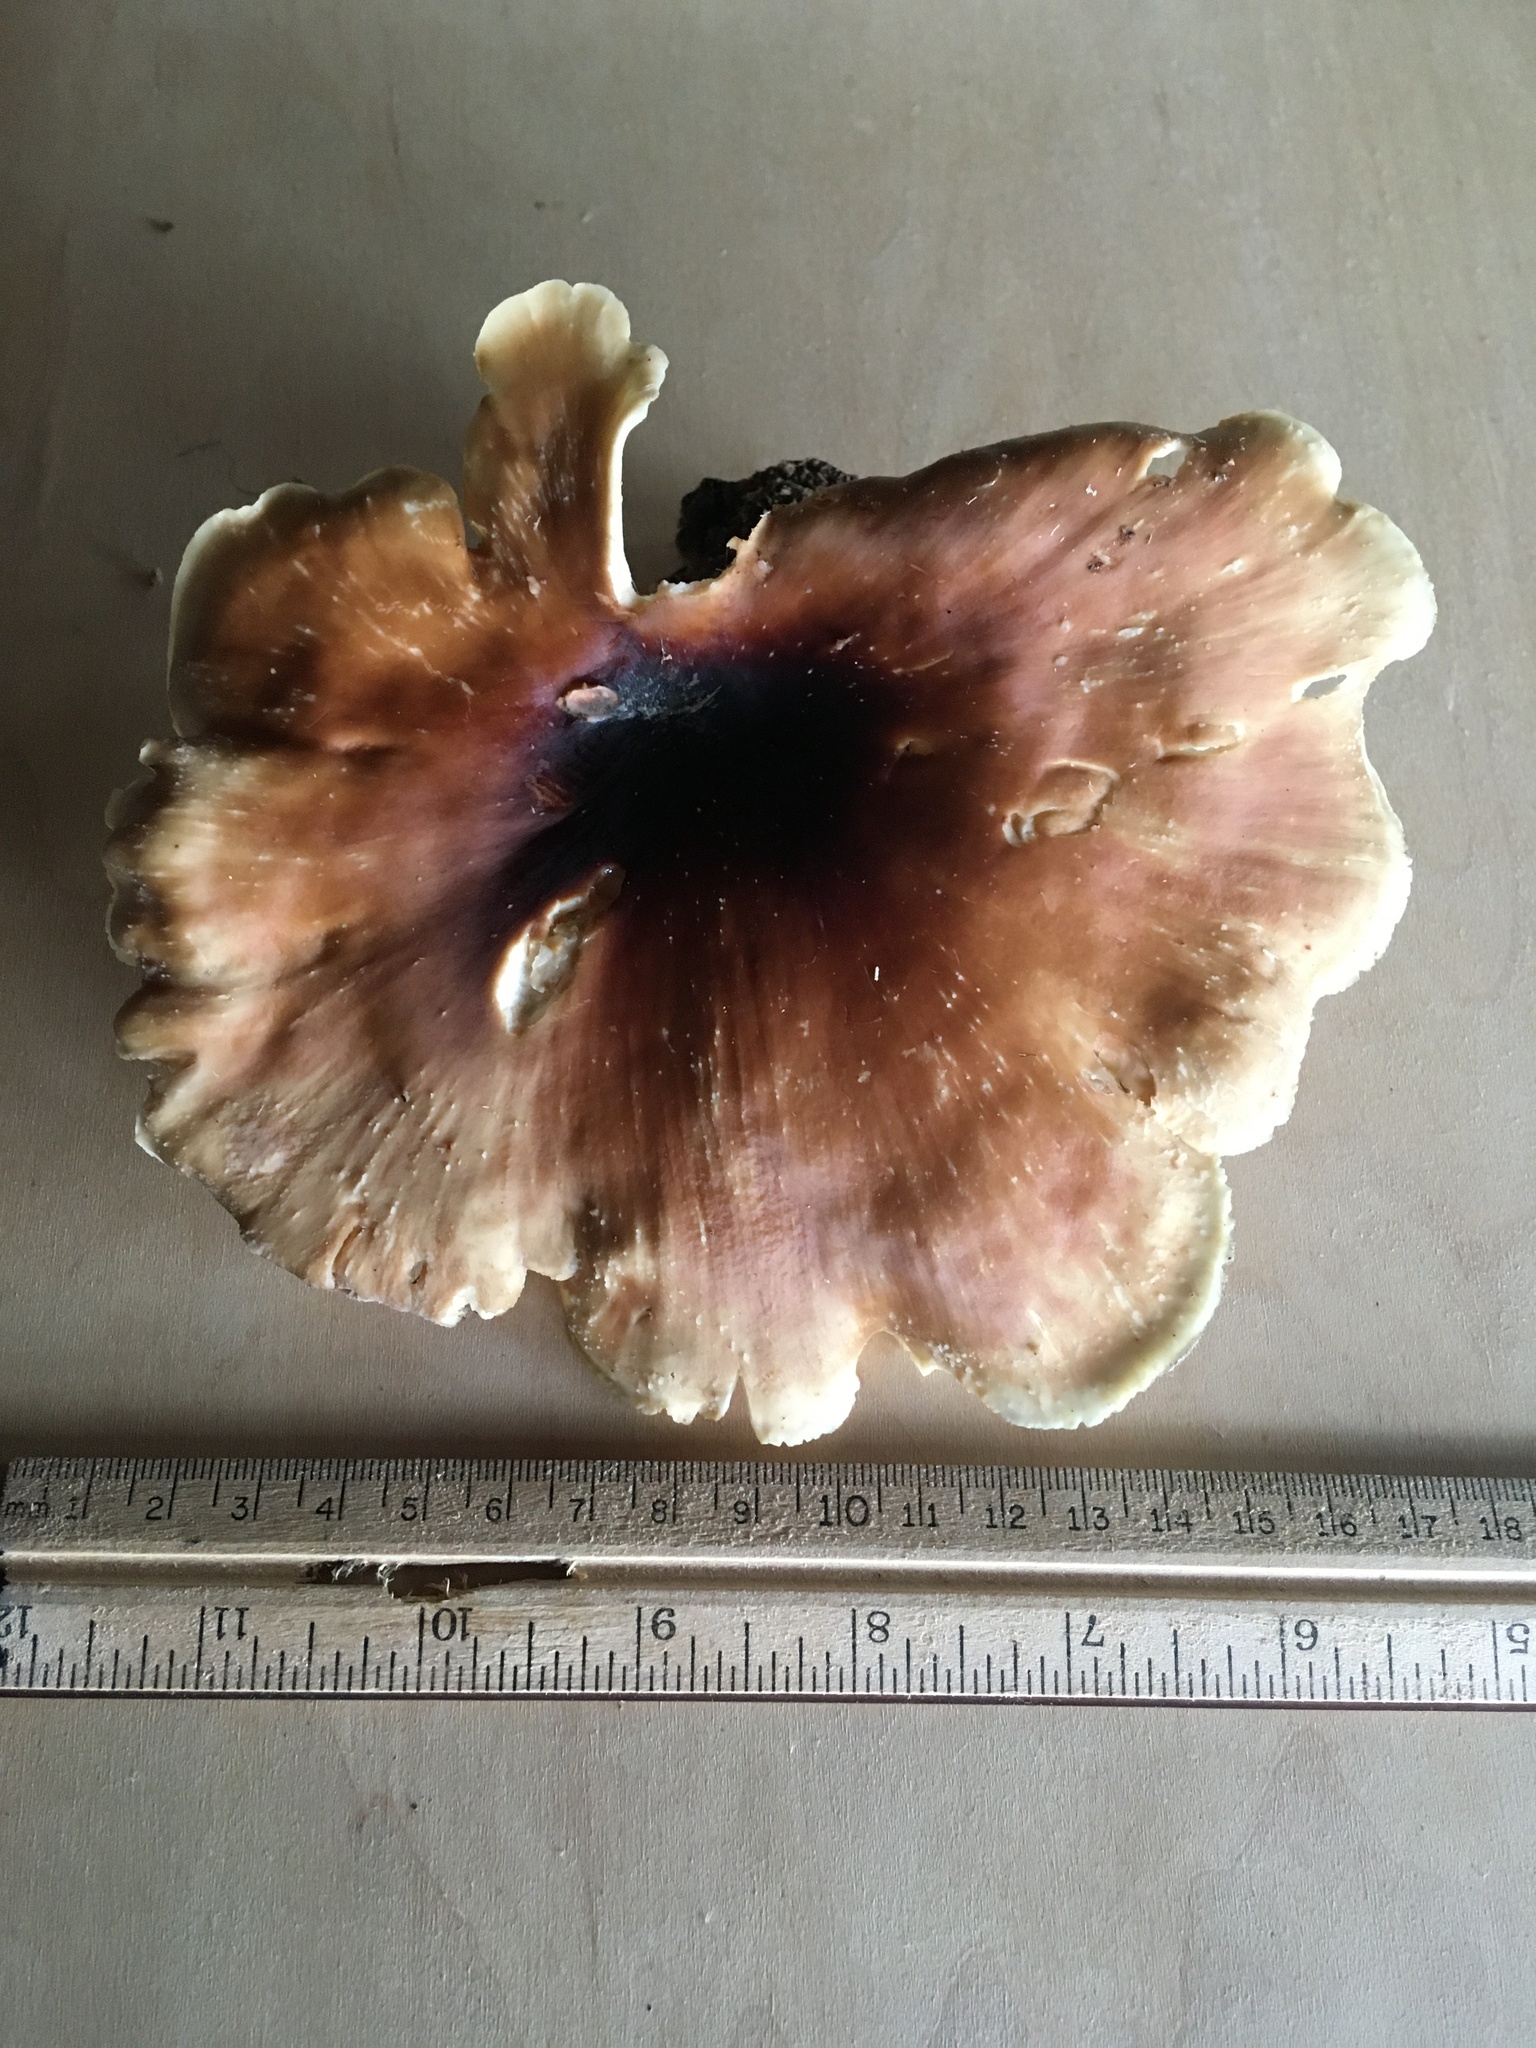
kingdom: Fungi
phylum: Basidiomycota
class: Agaricomycetes
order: Polyporales
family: Polyporaceae
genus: Picipes
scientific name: Picipes badius
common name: Bay polypore
